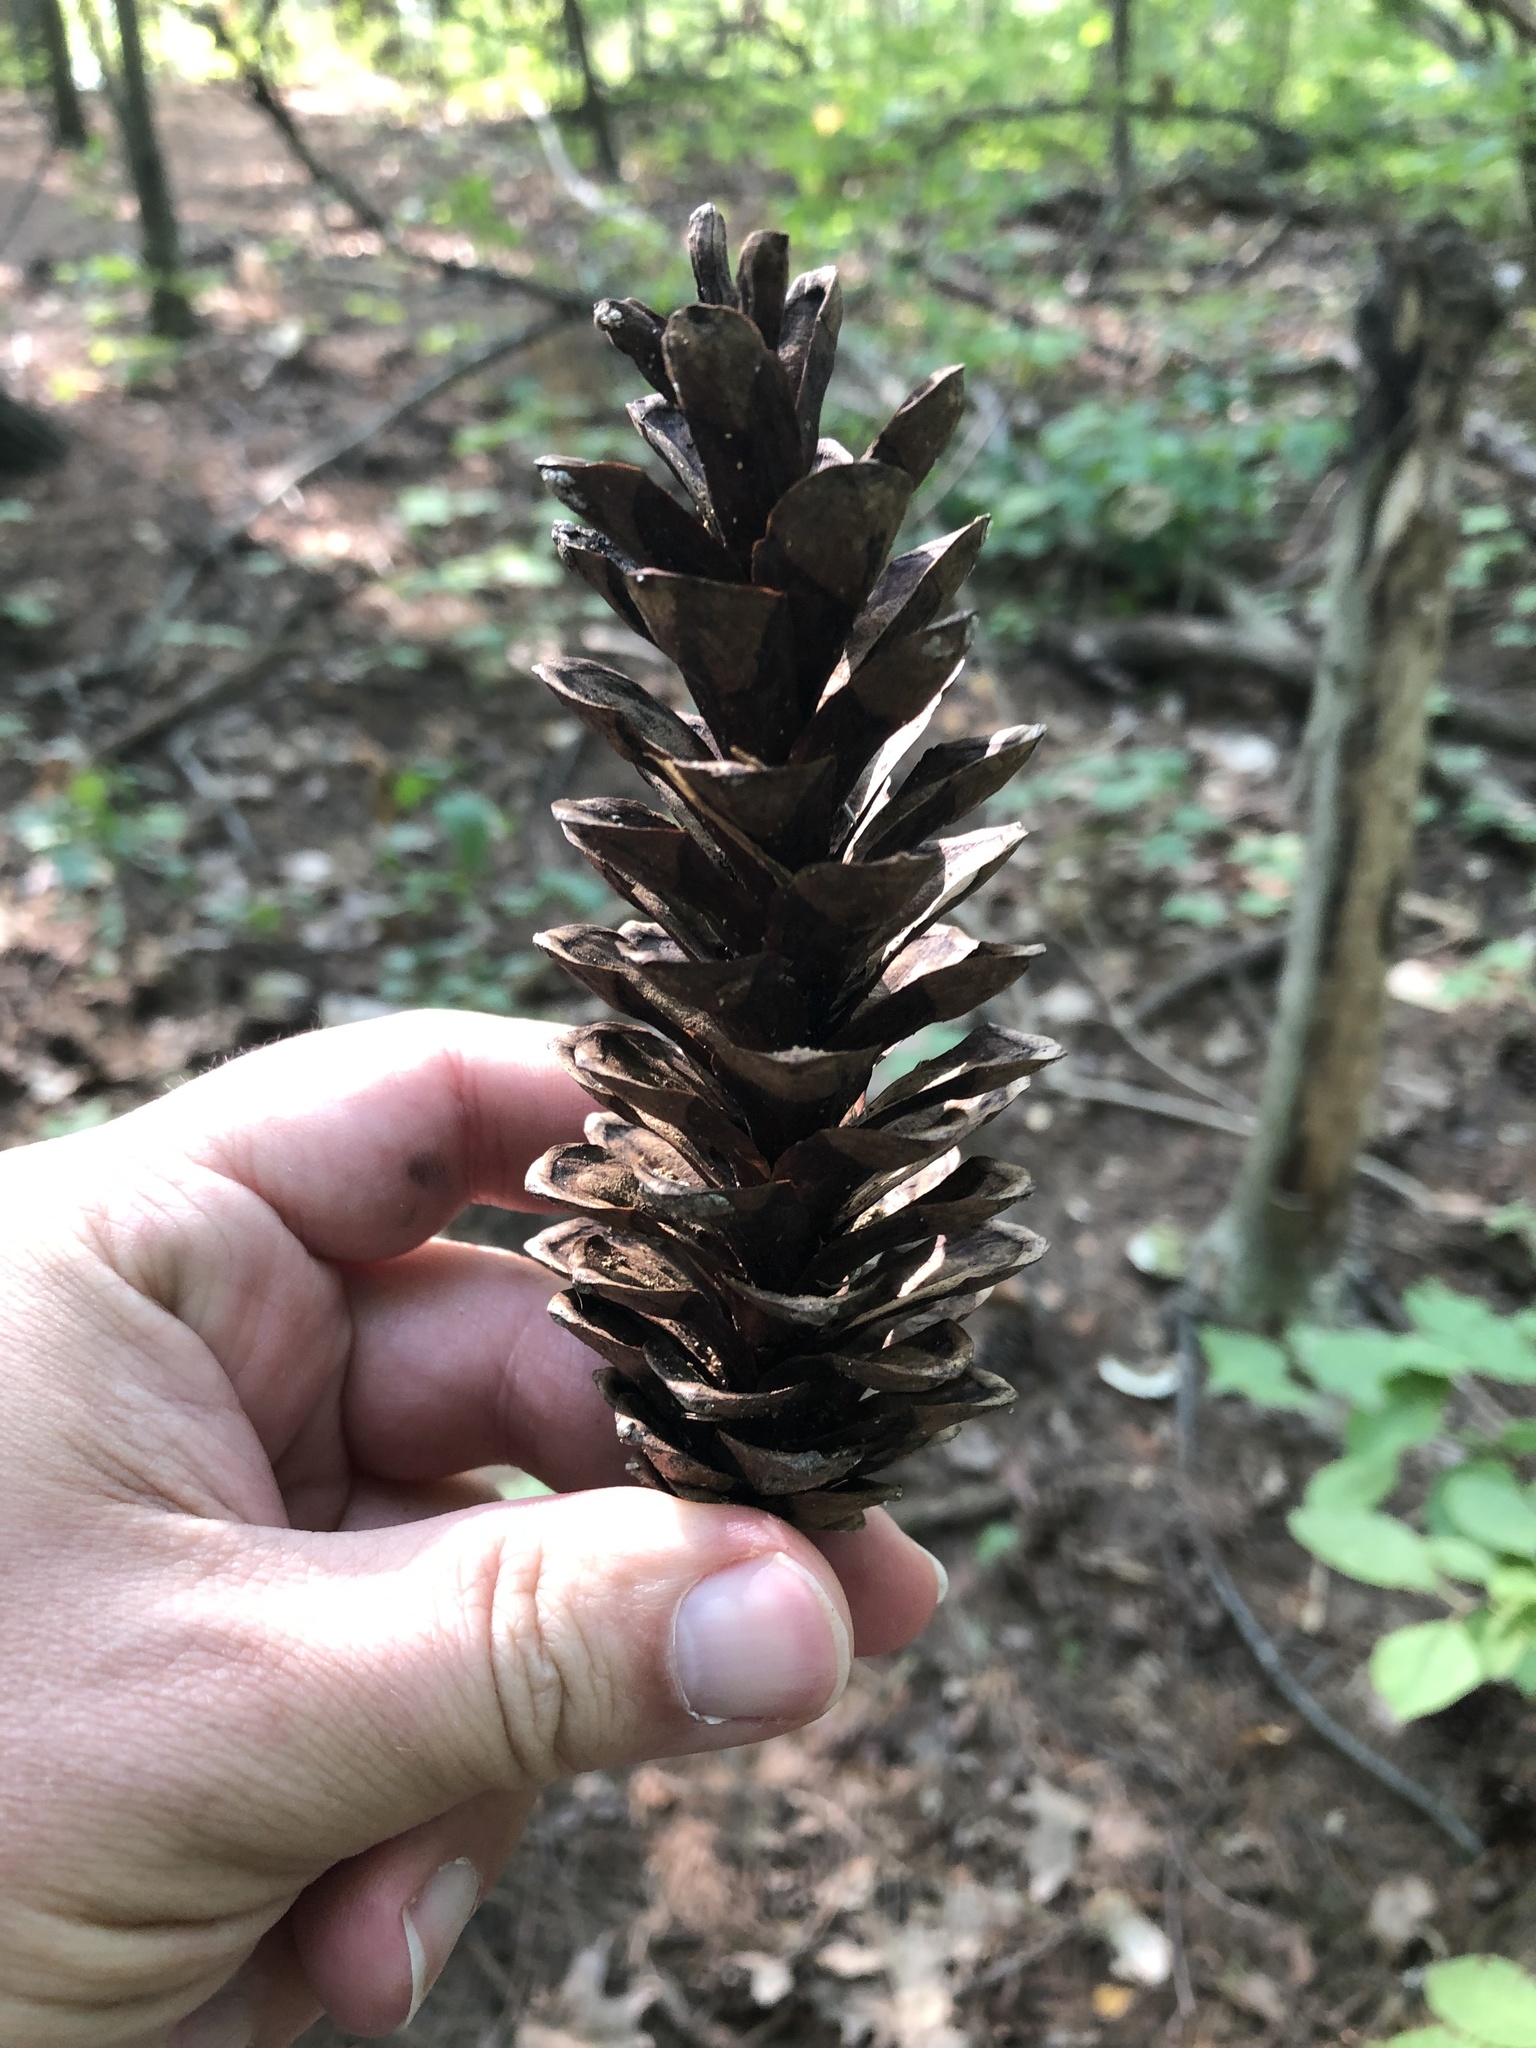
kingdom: Plantae
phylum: Tracheophyta
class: Pinopsida
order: Pinales
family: Pinaceae
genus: Pinus
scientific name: Pinus strobus
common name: Weymouth pine
